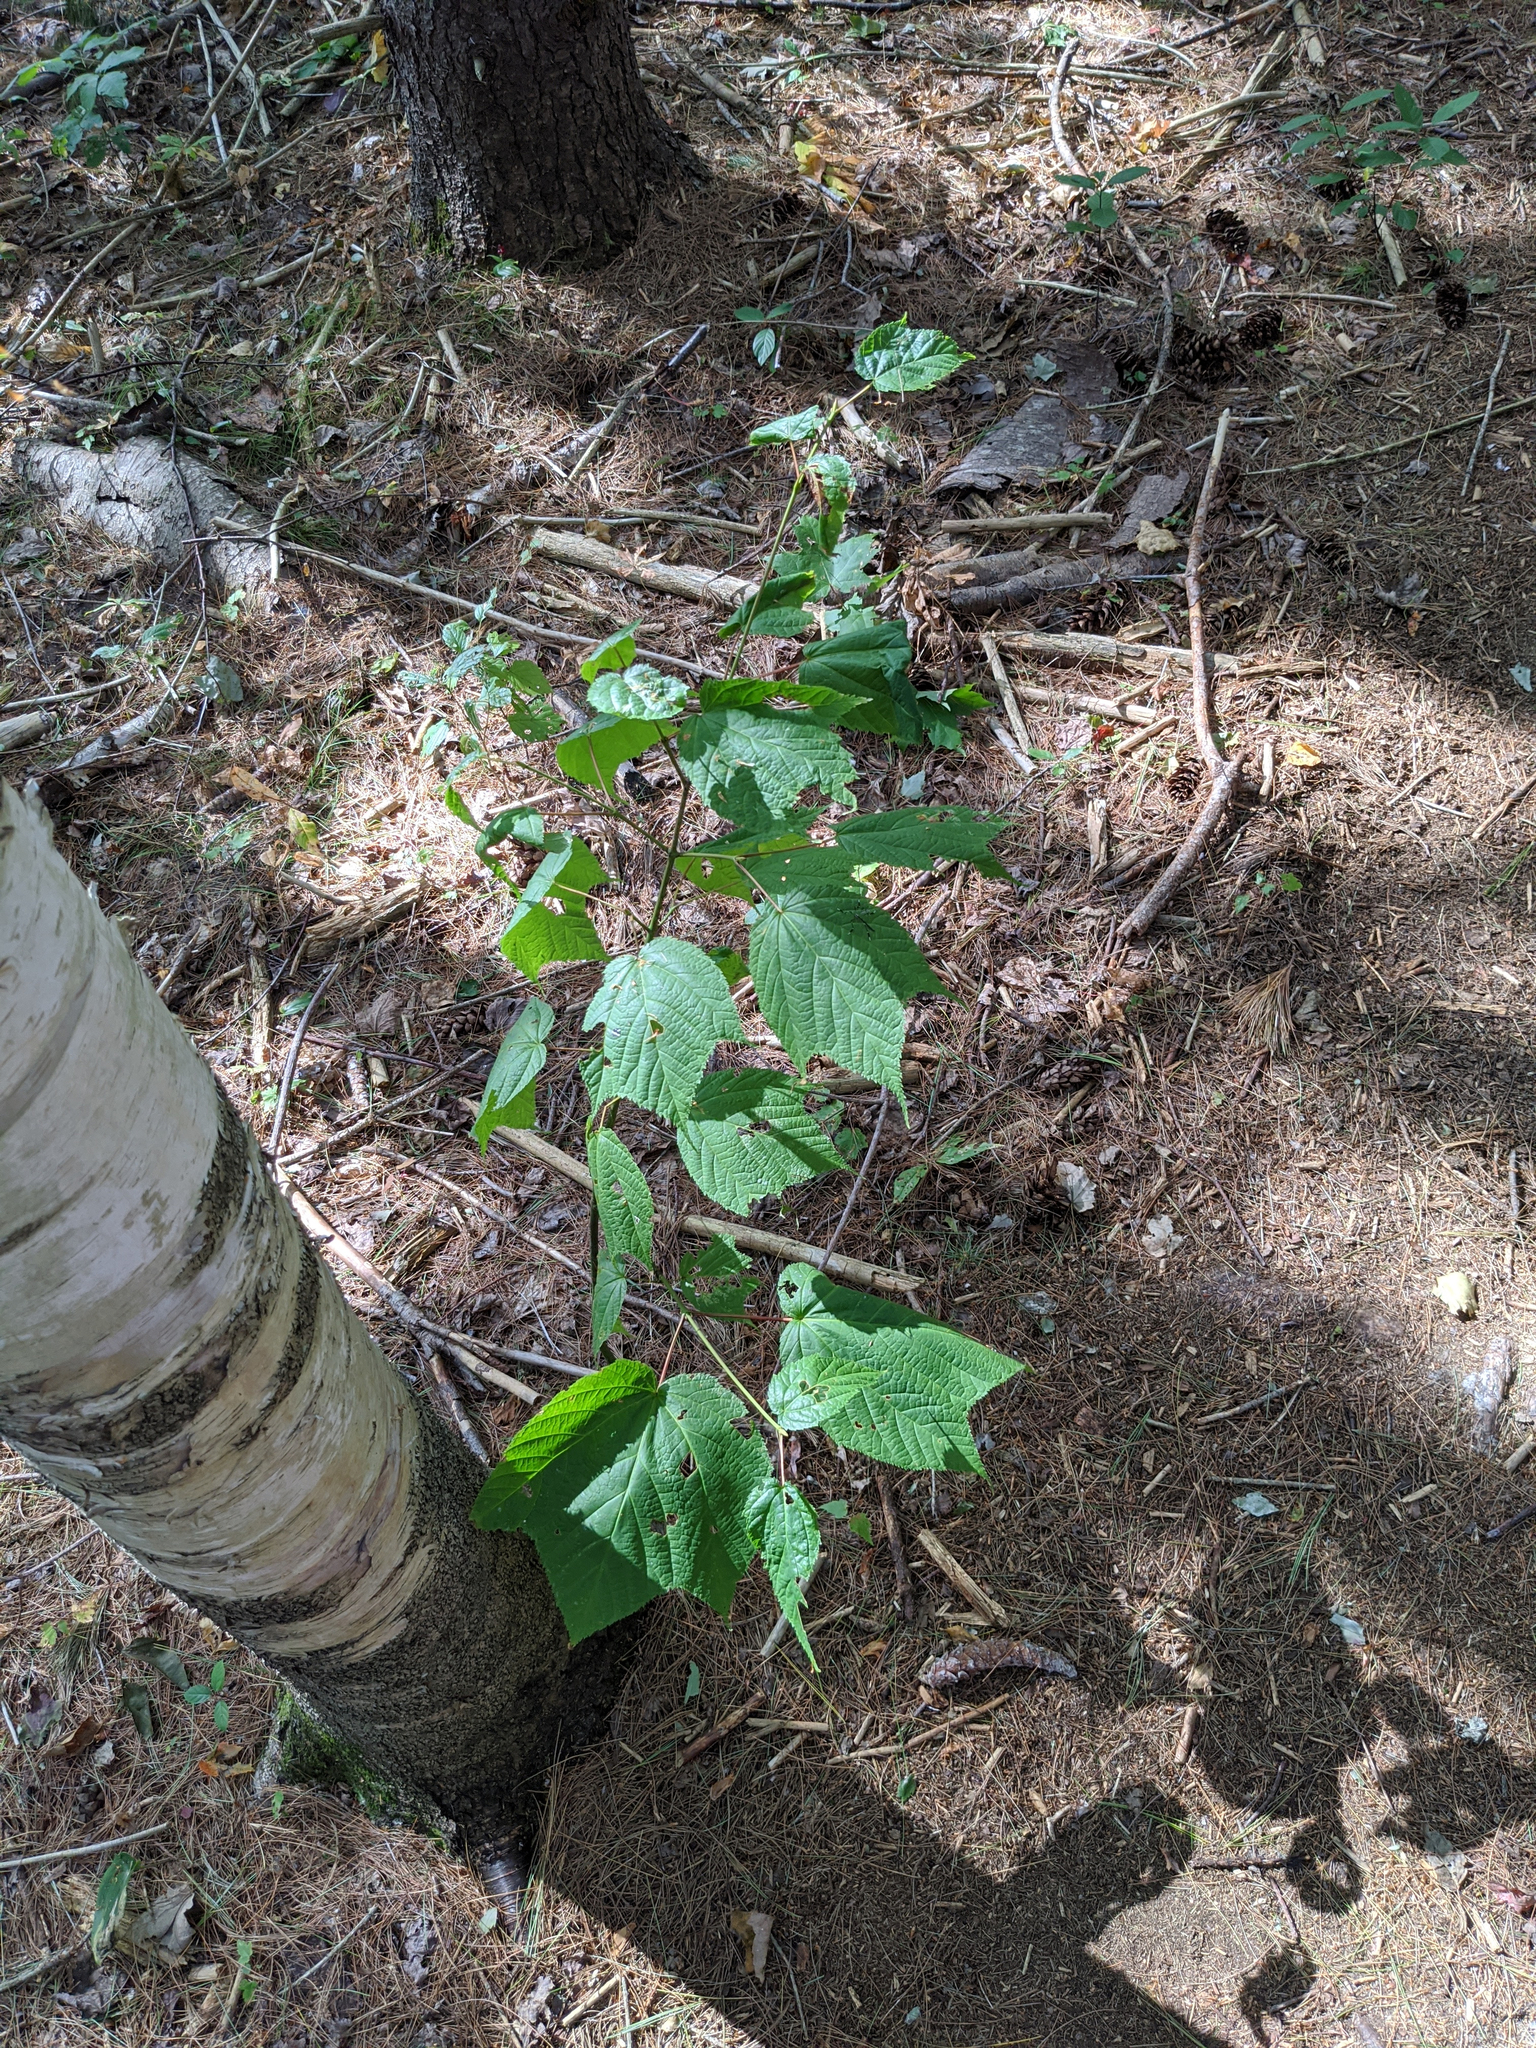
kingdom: Plantae
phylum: Tracheophyta
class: Magnoliopsida
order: Sapindales
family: Sapindaceae
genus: Acer
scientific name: Acer pensylvanicum
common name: Moosewood
